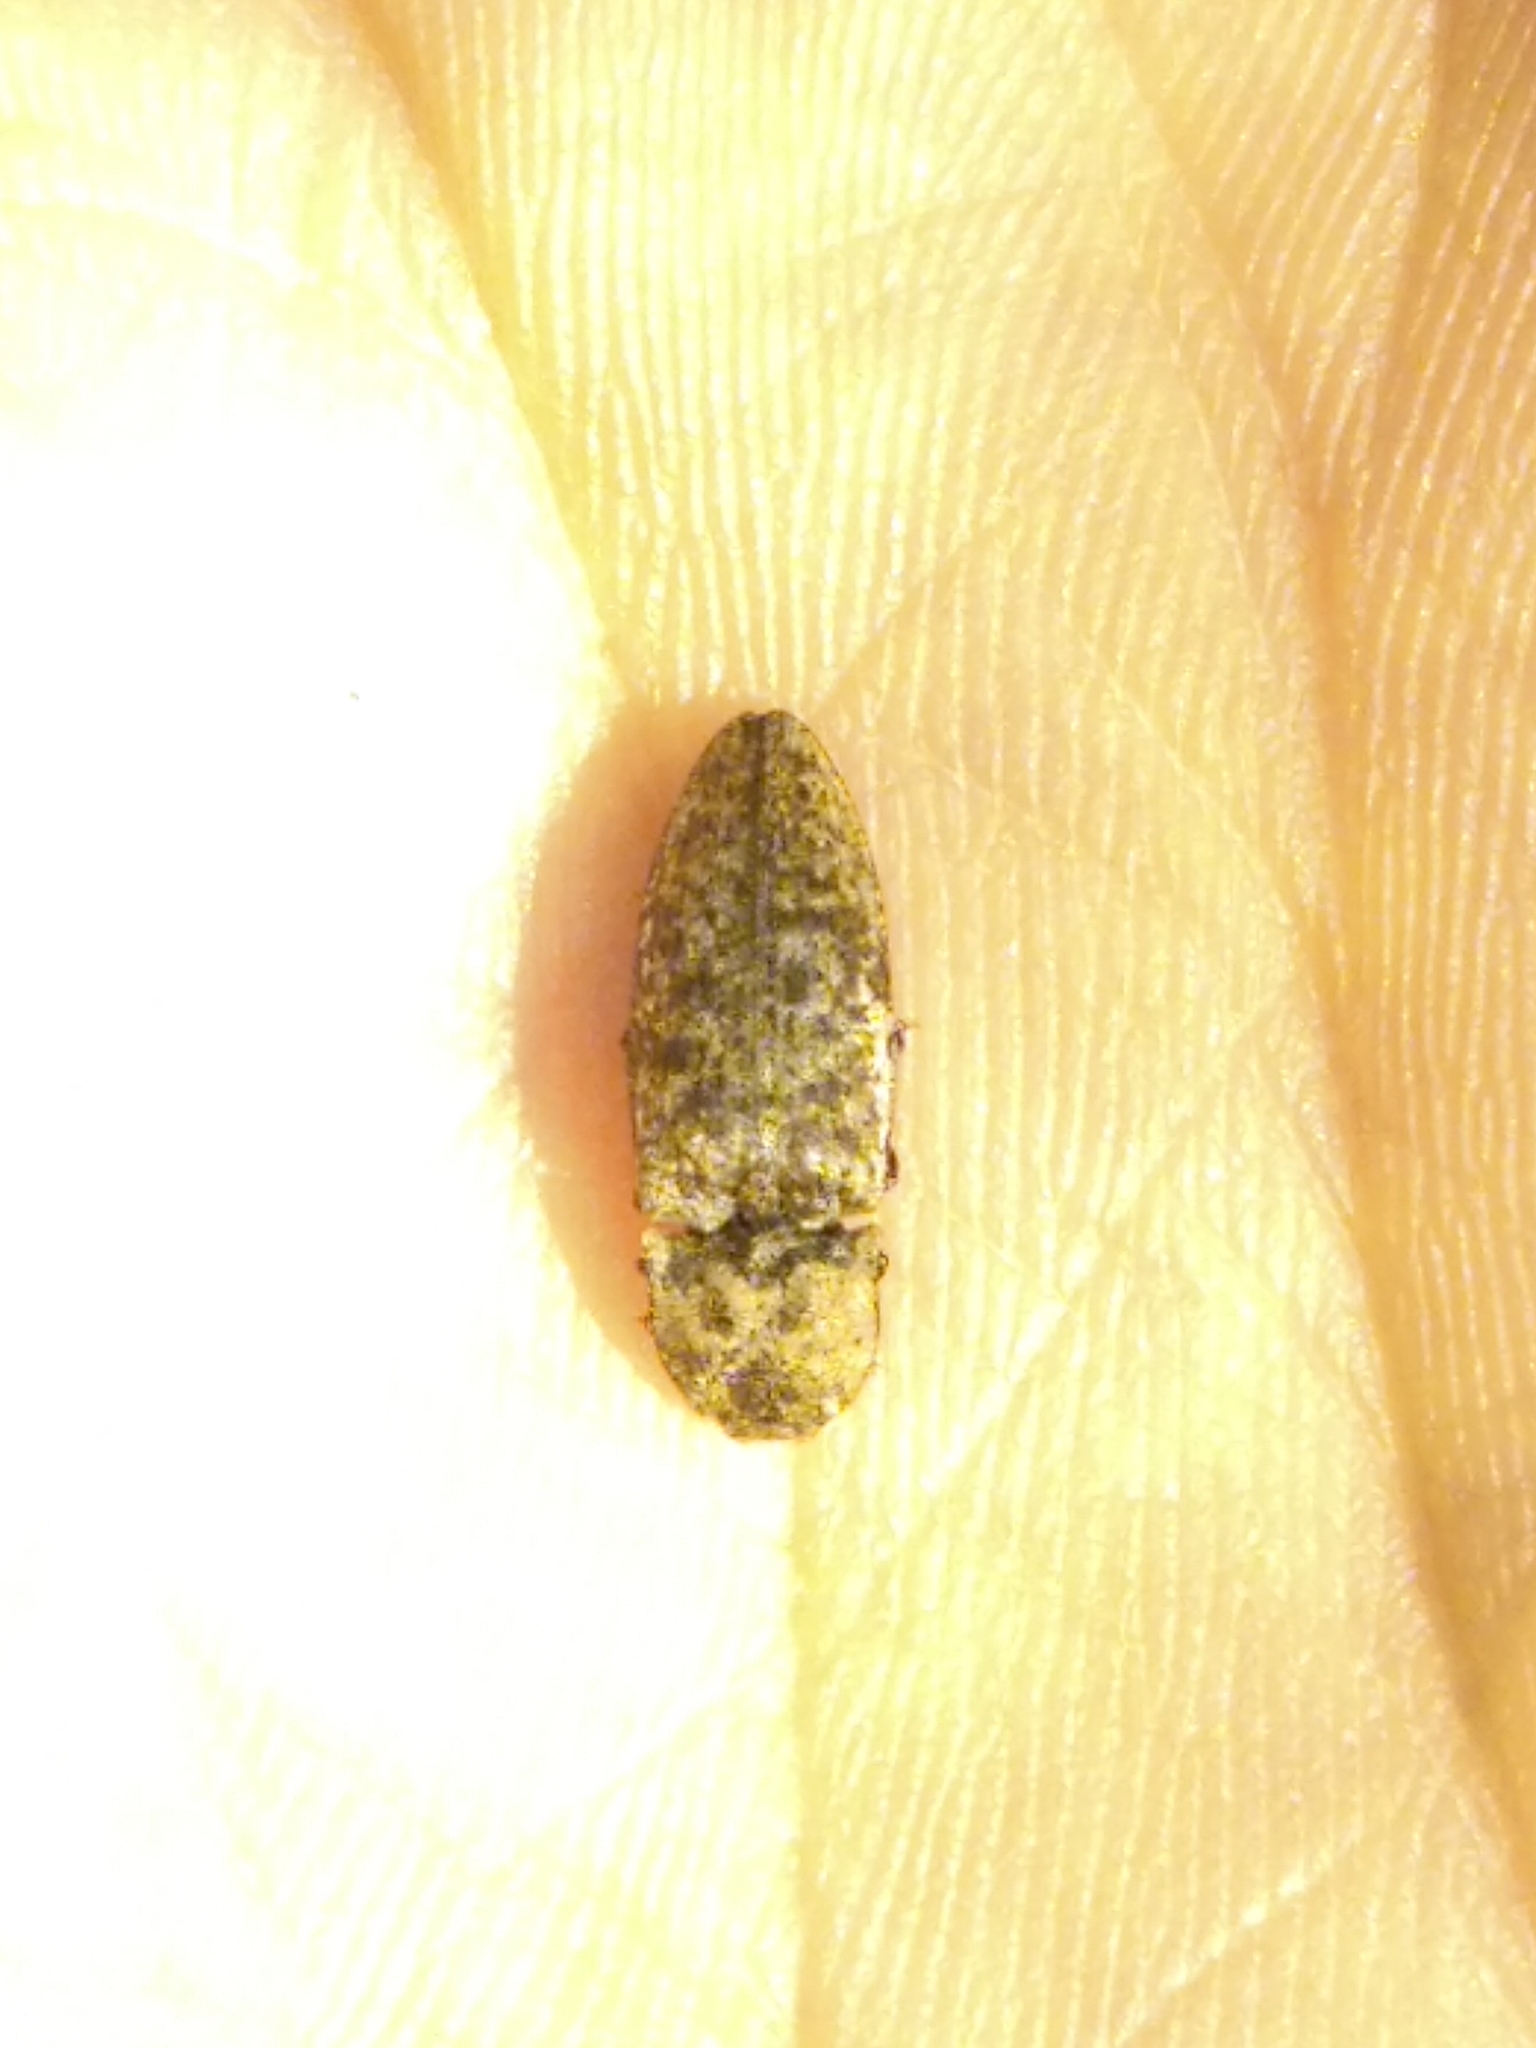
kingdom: Animalia
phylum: Arthropoda
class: Insecta
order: Coleoptera
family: Elateridae
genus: Agrypnus
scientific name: Agrypnus murinus
